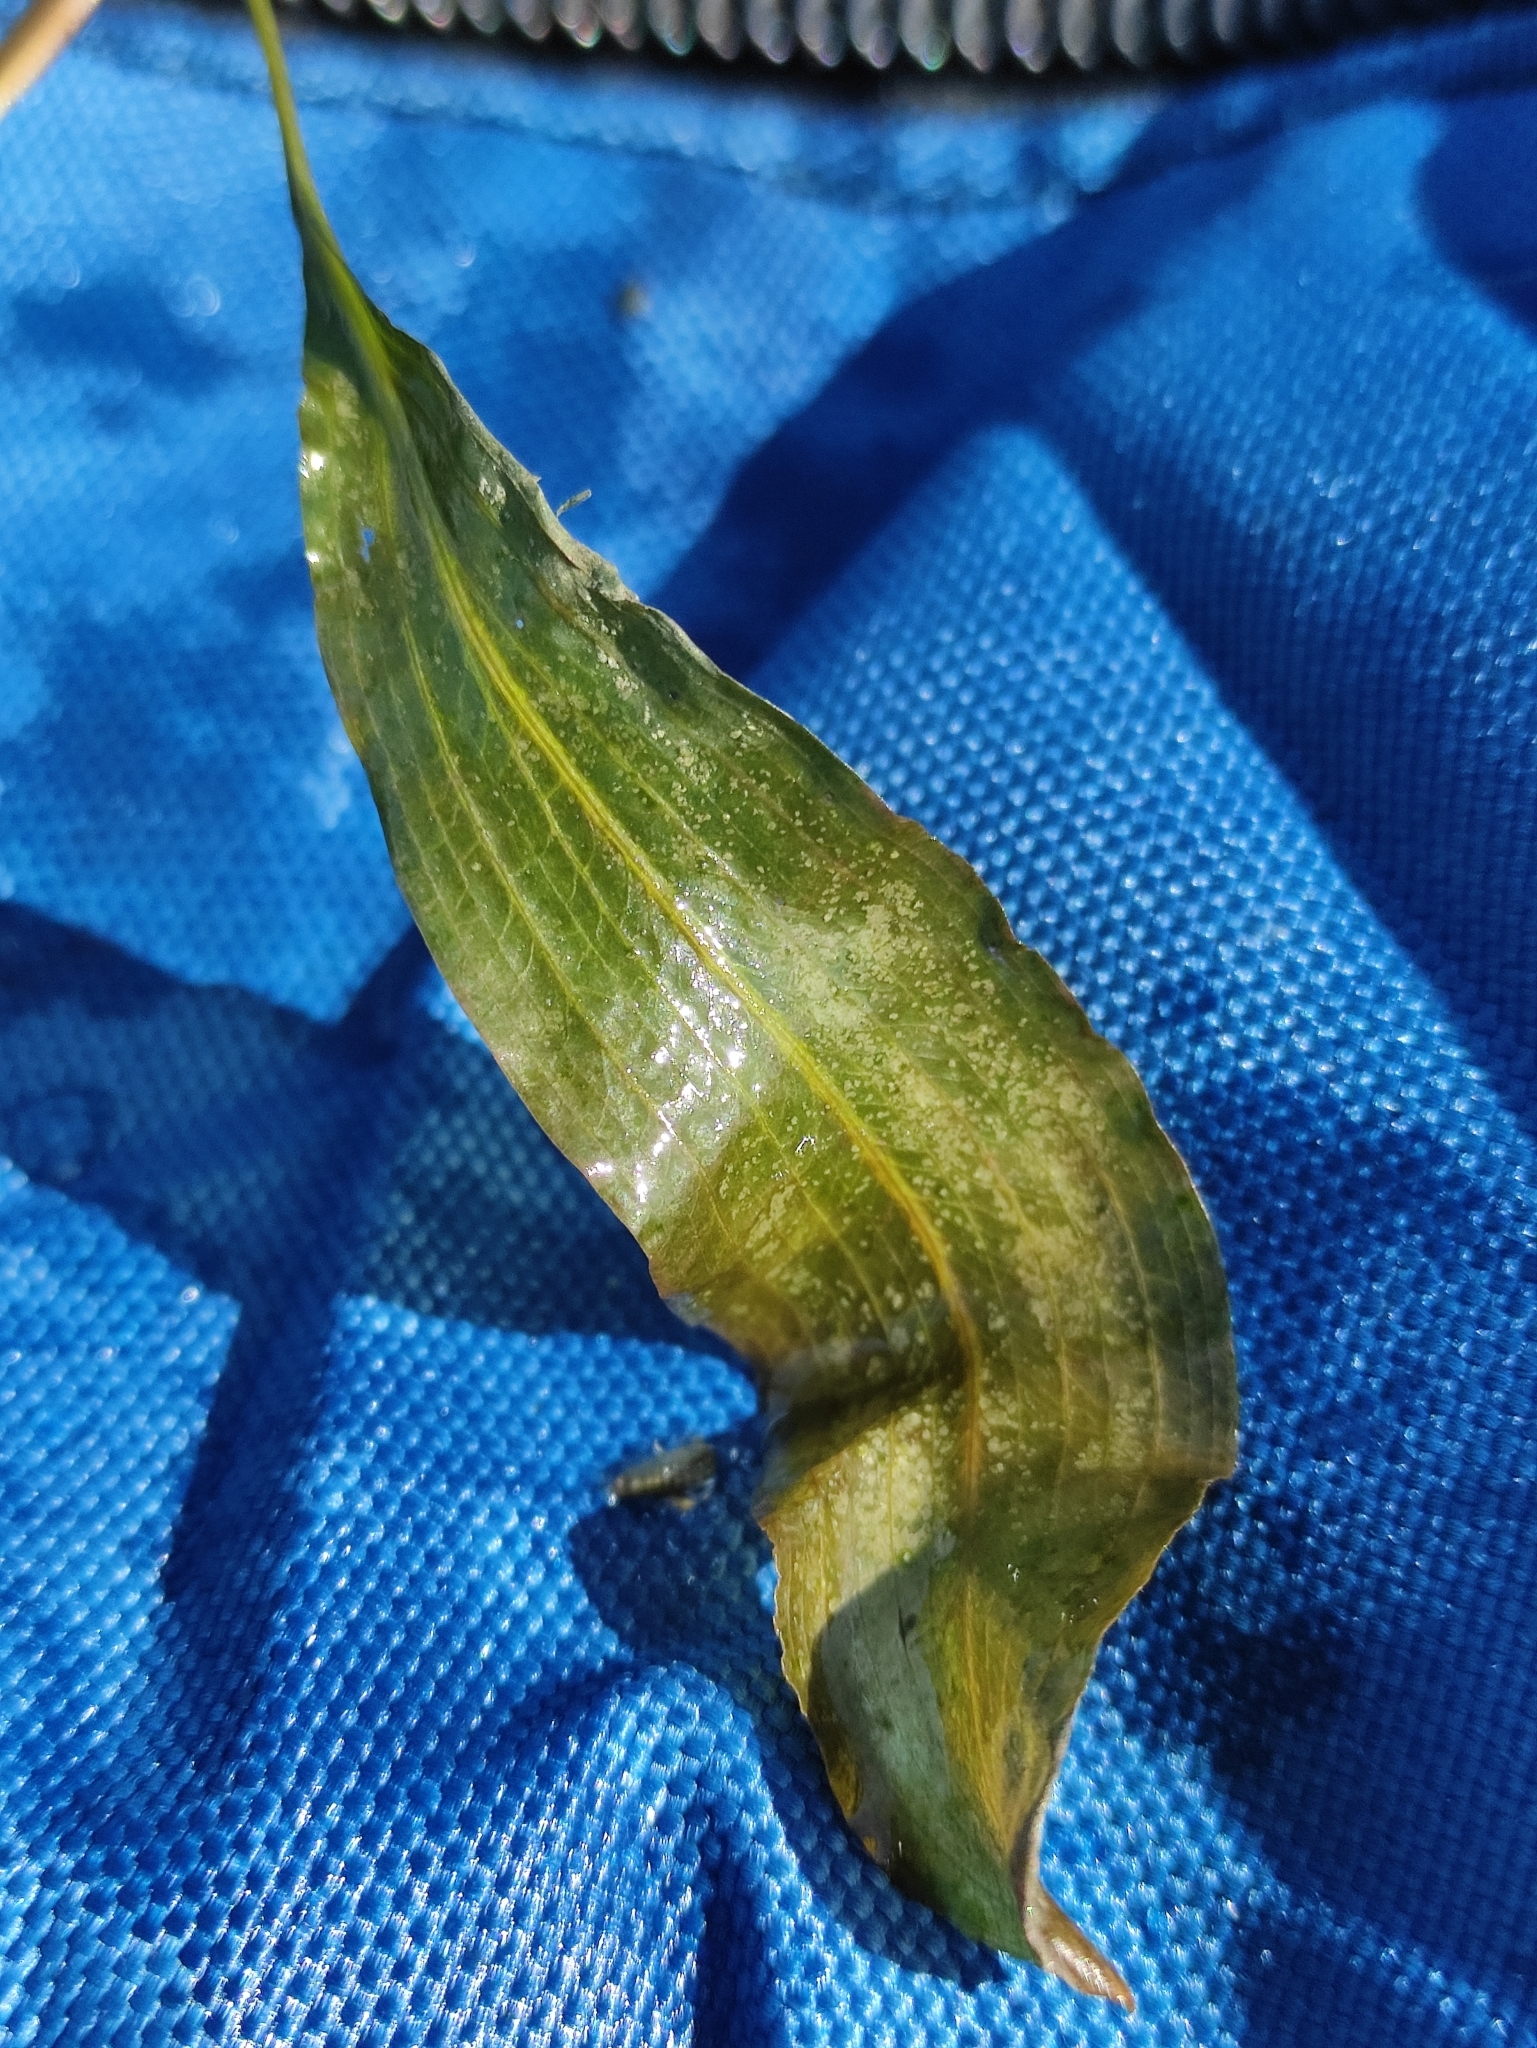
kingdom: Plantae
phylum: Tracheophyta
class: Liliopsida
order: Alismatales
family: Potamogetonaceae
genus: Potamogeton
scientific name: Potamogeton lucens
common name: Shining pondweed
